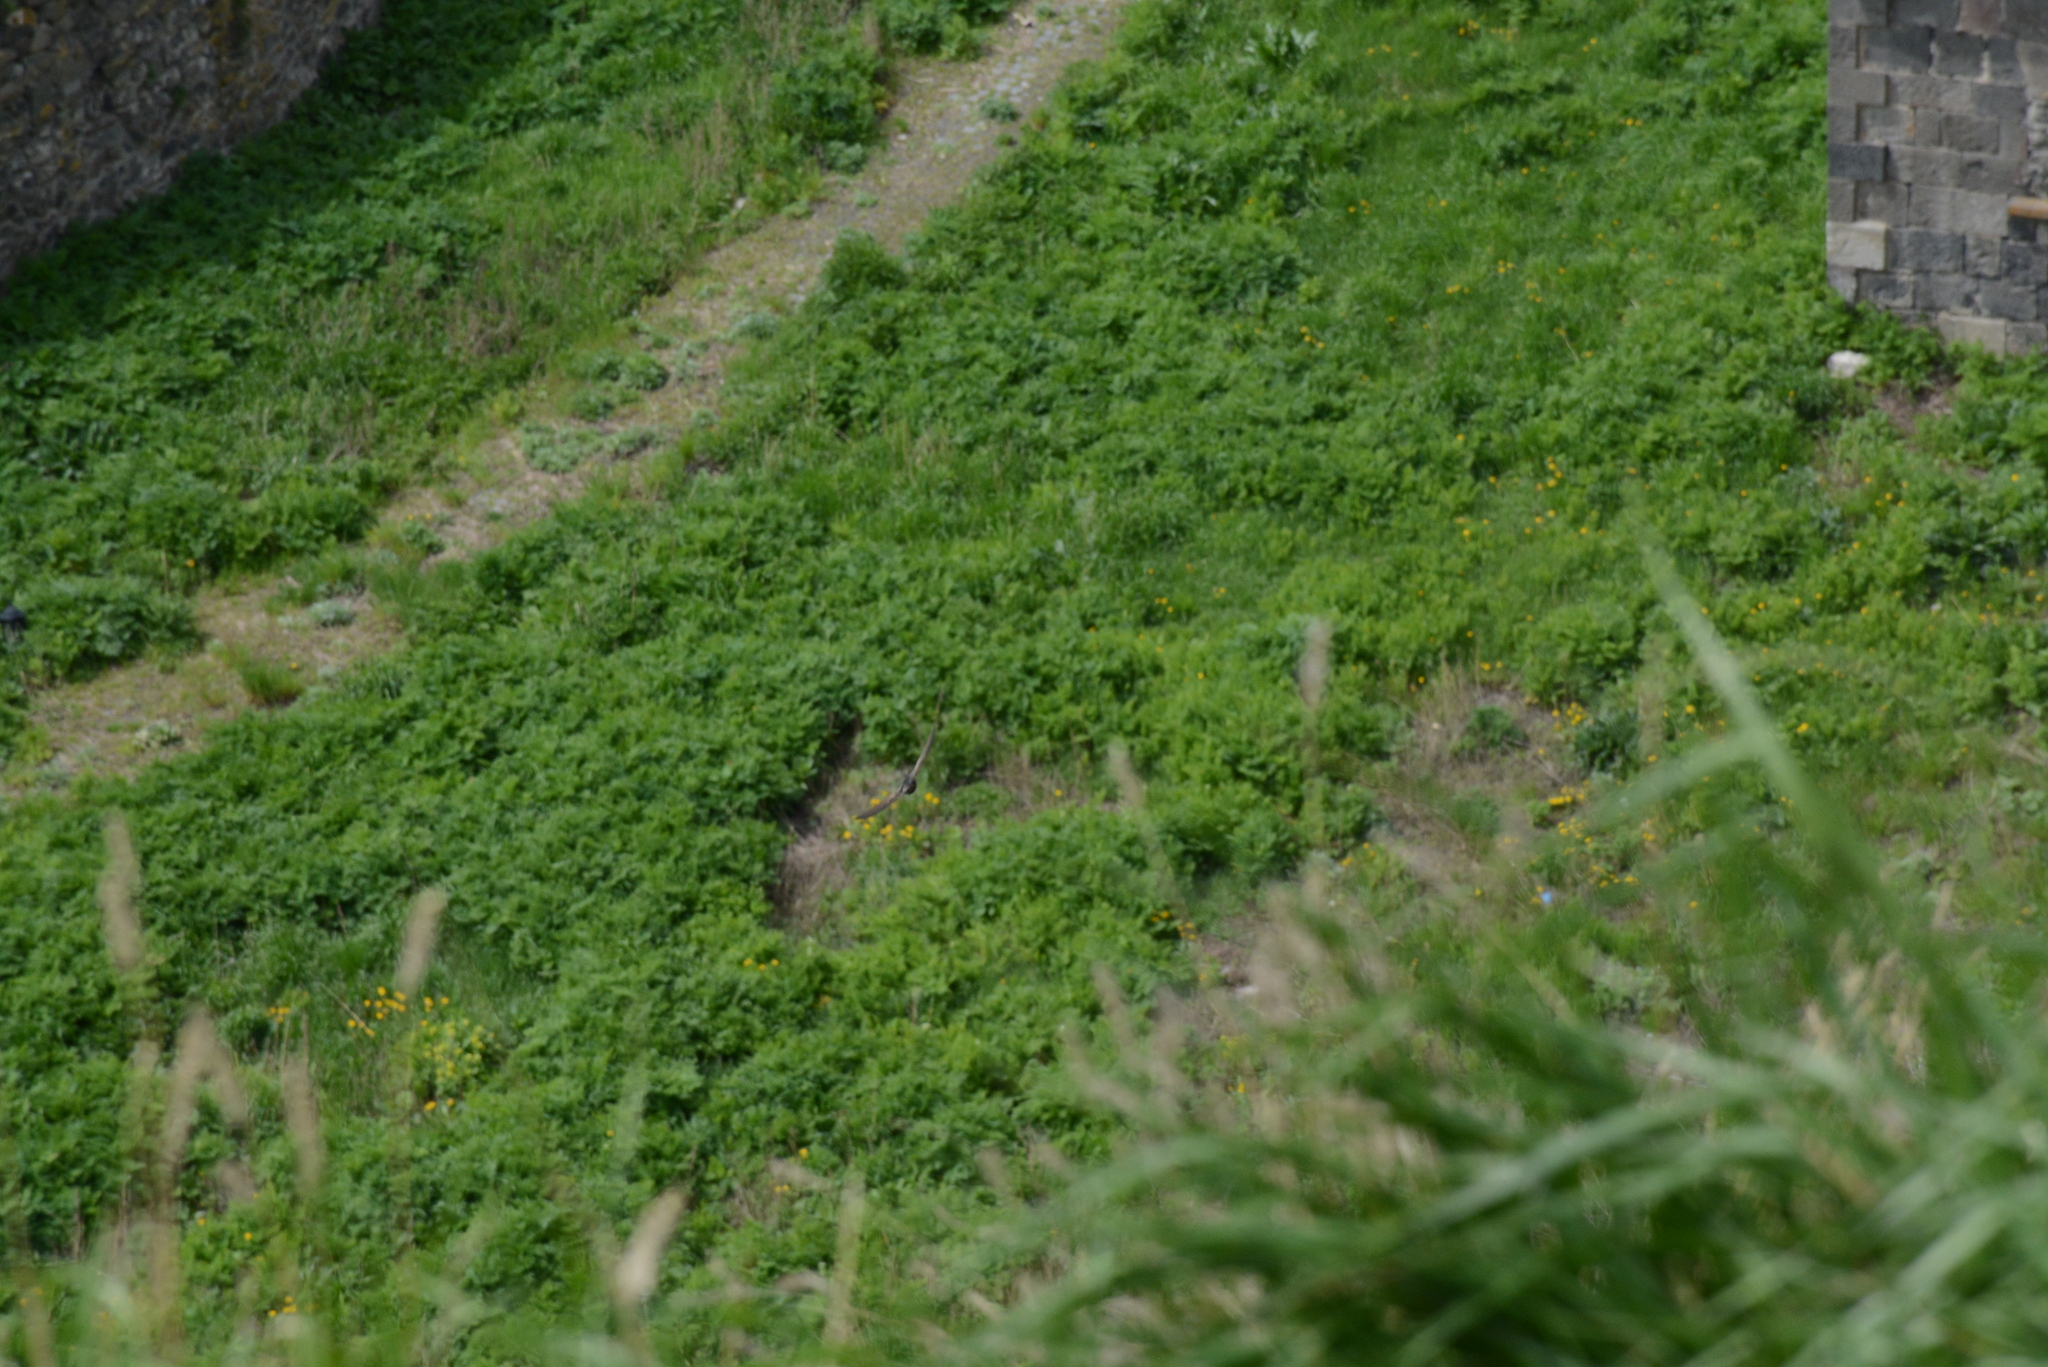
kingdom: Animalia
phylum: Chordata
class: Aves
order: Apodiformes
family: Apodidae
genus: Apus
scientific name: Apus apus
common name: Common swift
